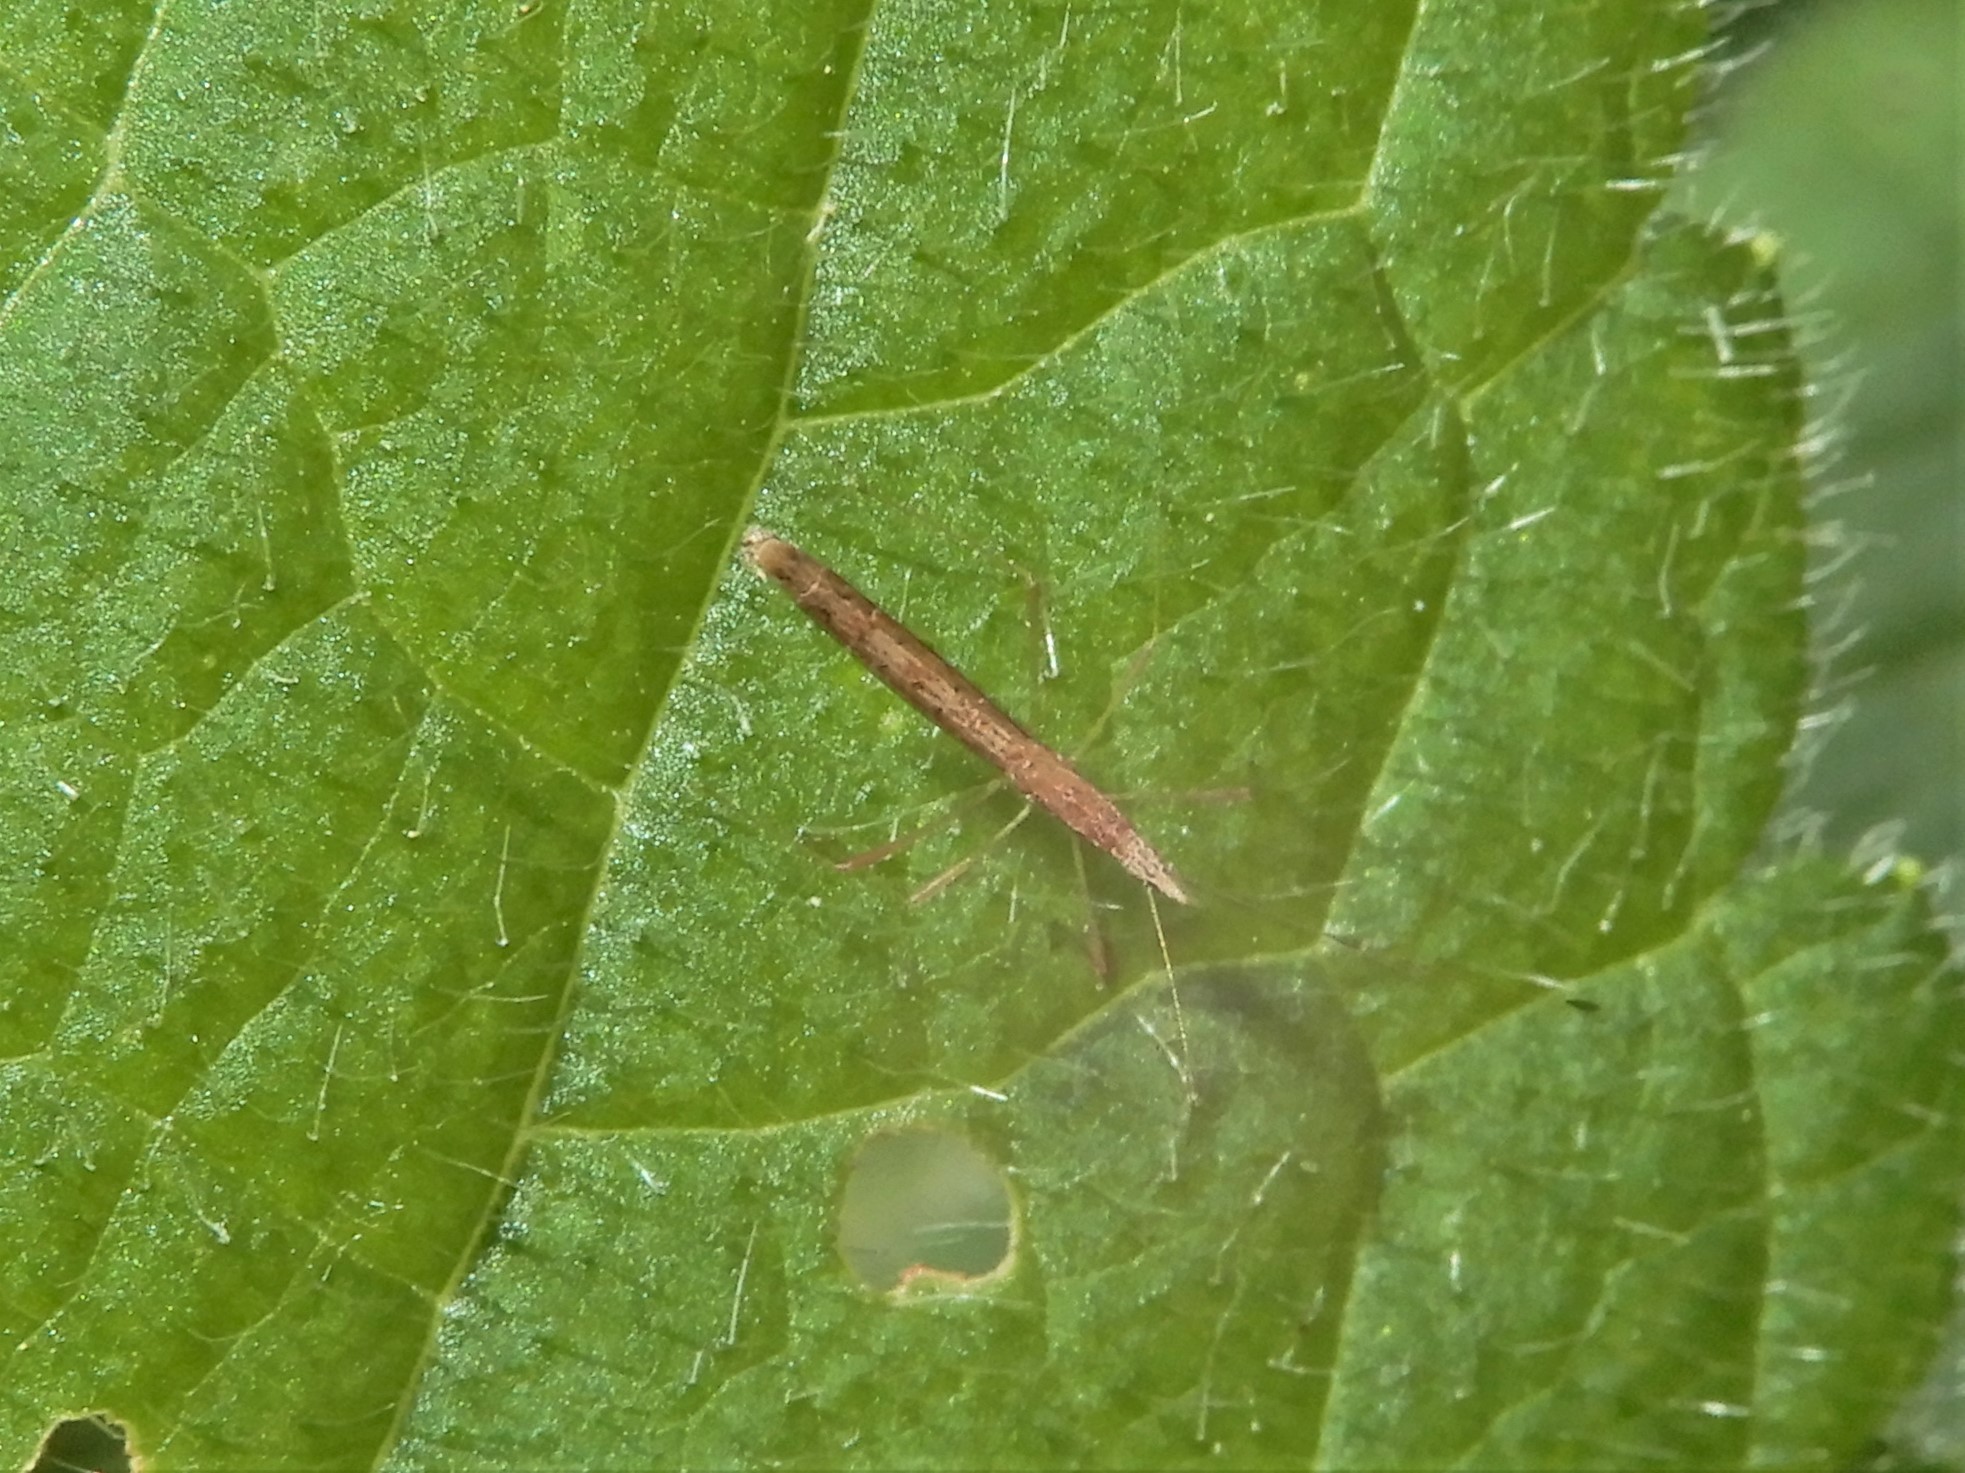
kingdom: Animalia
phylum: Arthropoda
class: Insecta
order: Hemiptera
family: Berytidae
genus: Bezu
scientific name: Bezu wakefieldi
